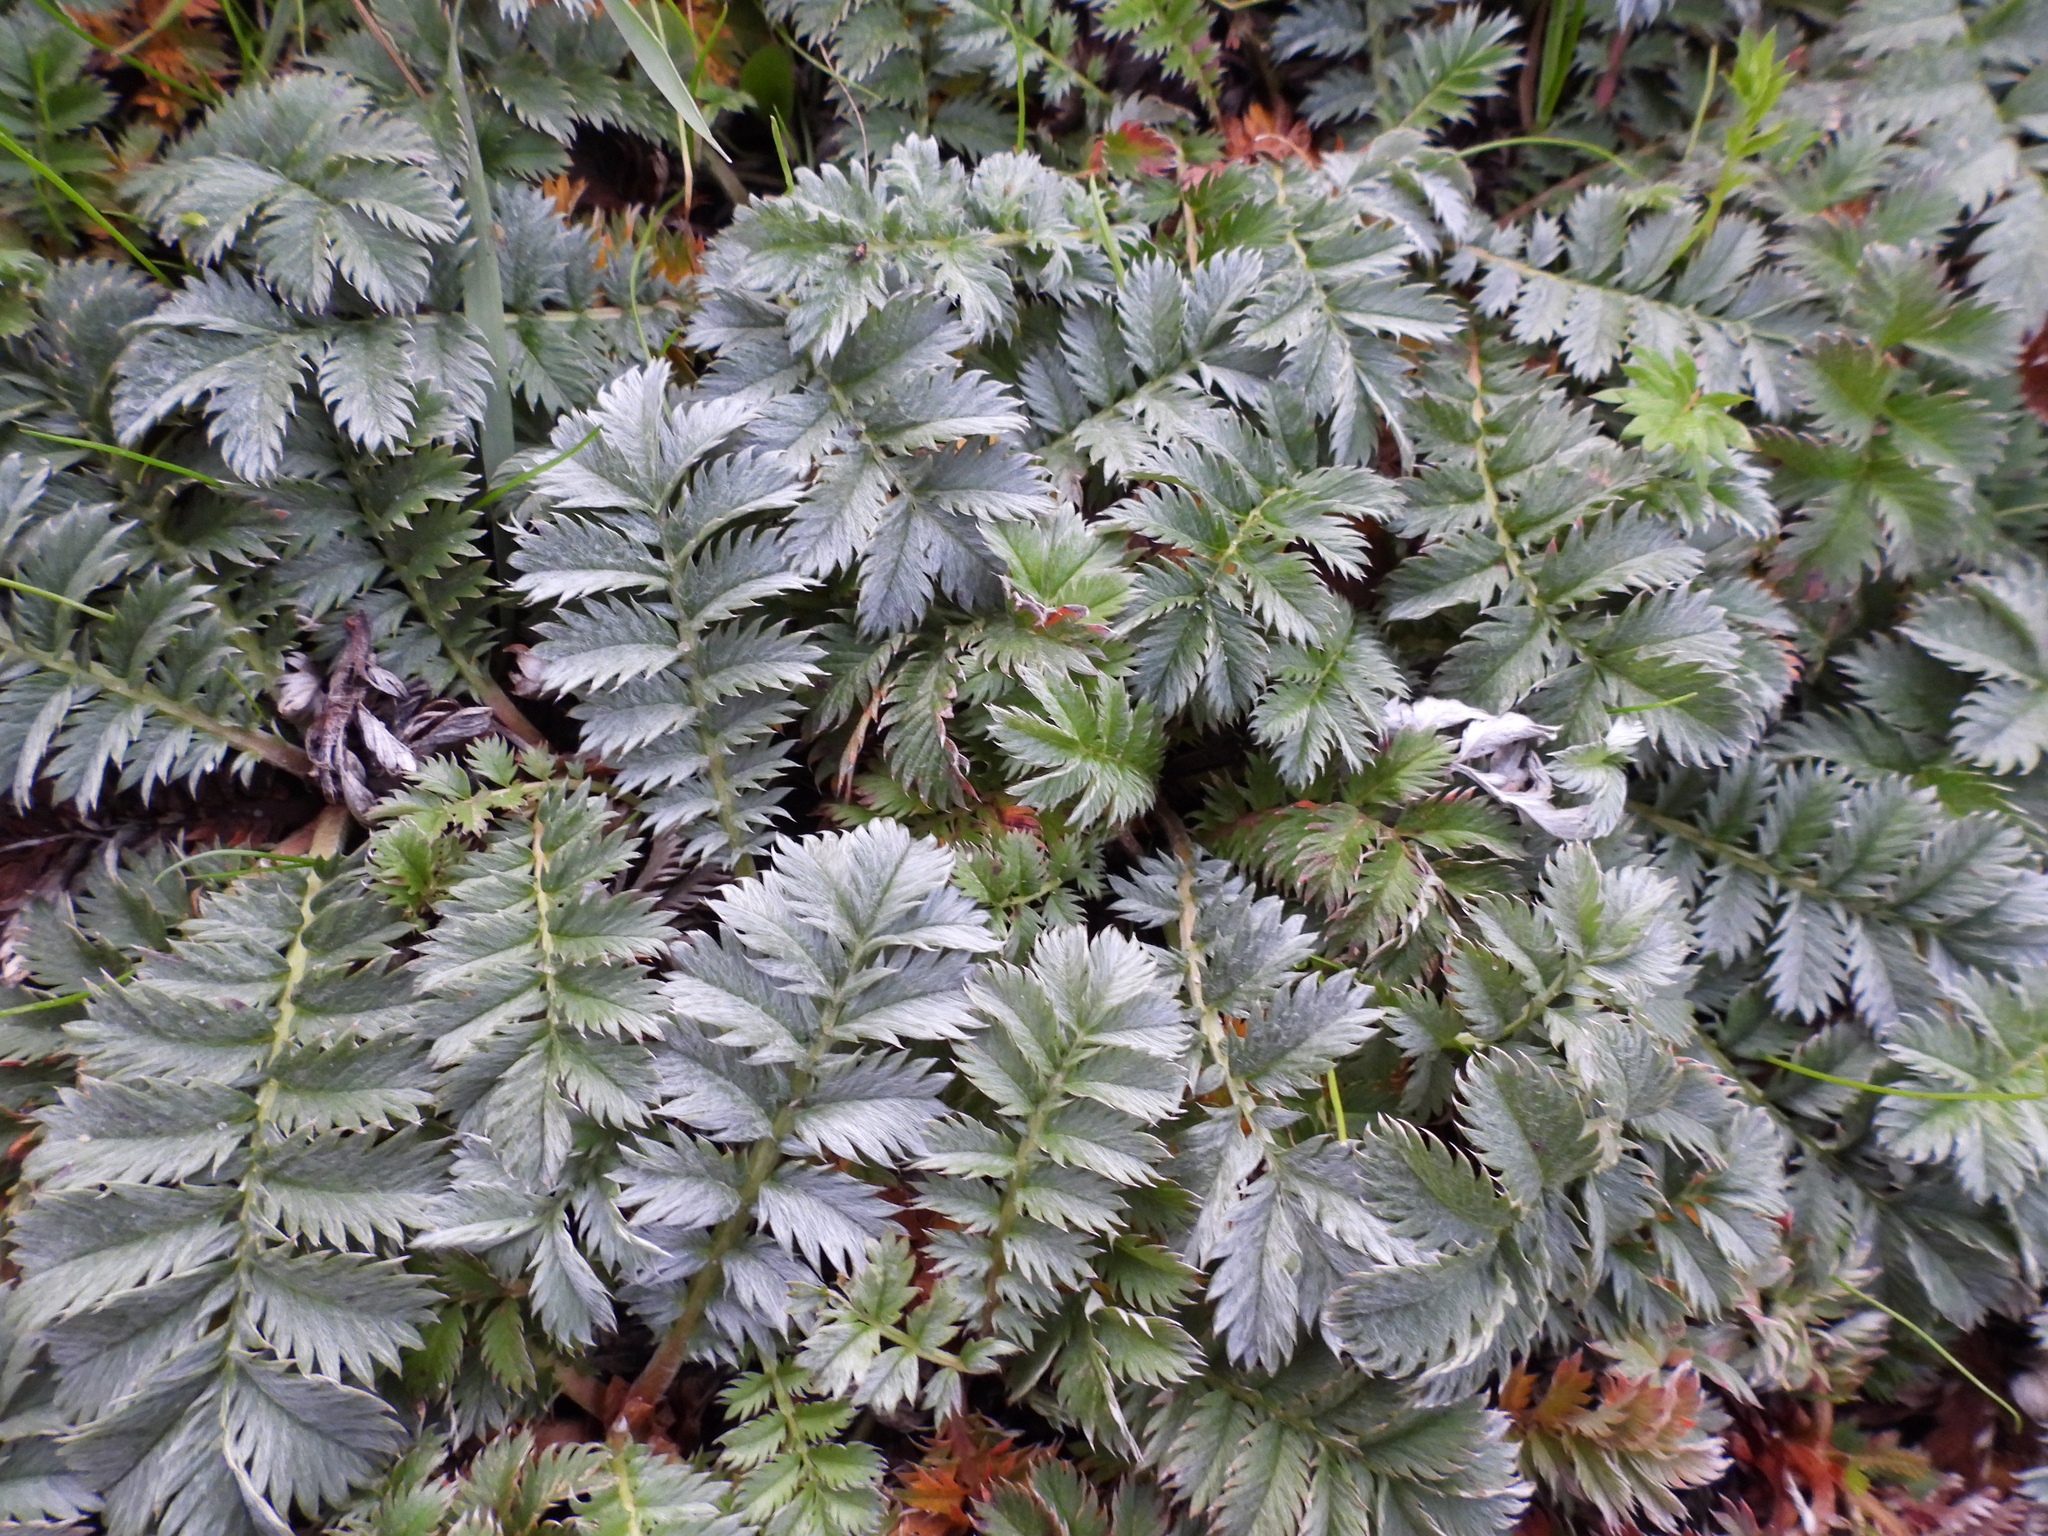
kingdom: Plantae
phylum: Tracheophyta
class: Magnoliopsida
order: Rosales
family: Rosaceae
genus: Argentina
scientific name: Argentina anserina
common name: Common silverweed
